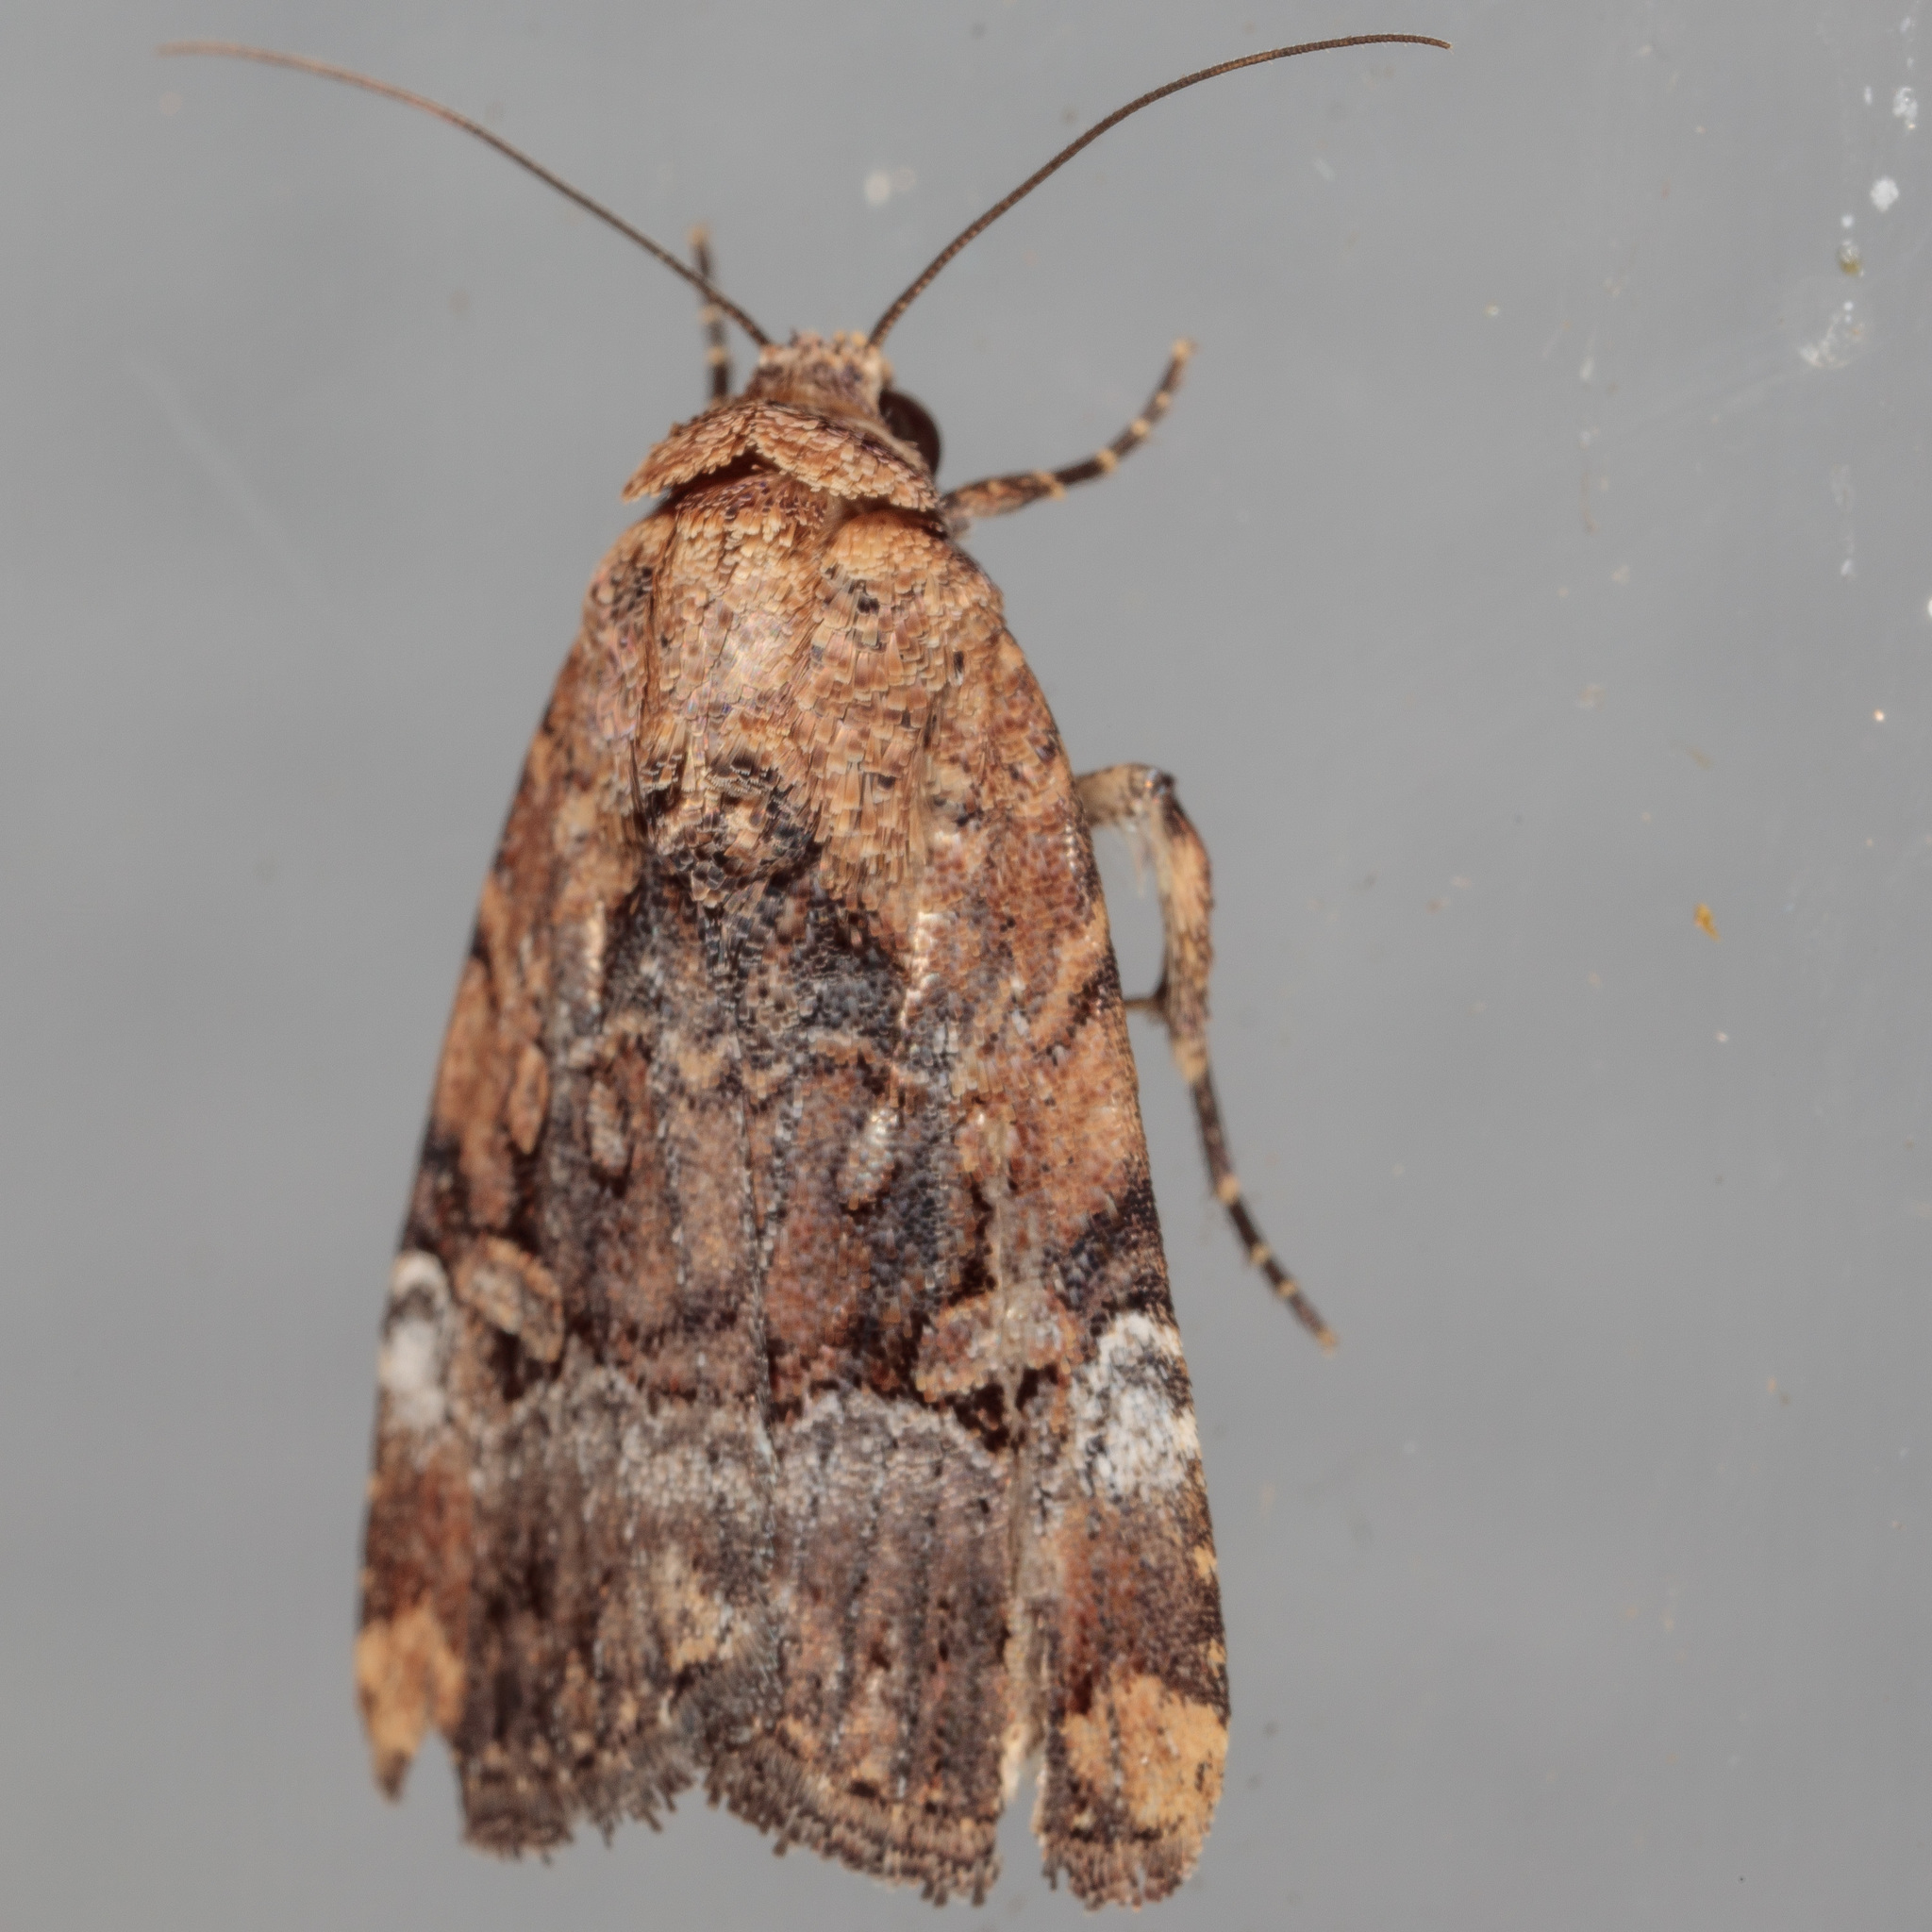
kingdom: Animalia
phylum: Arthropoda
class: Insecta
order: Lepidoptera
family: Noctuidae
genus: Elaphria
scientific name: Elaphria chalcedonia
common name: Chalcedony midget
